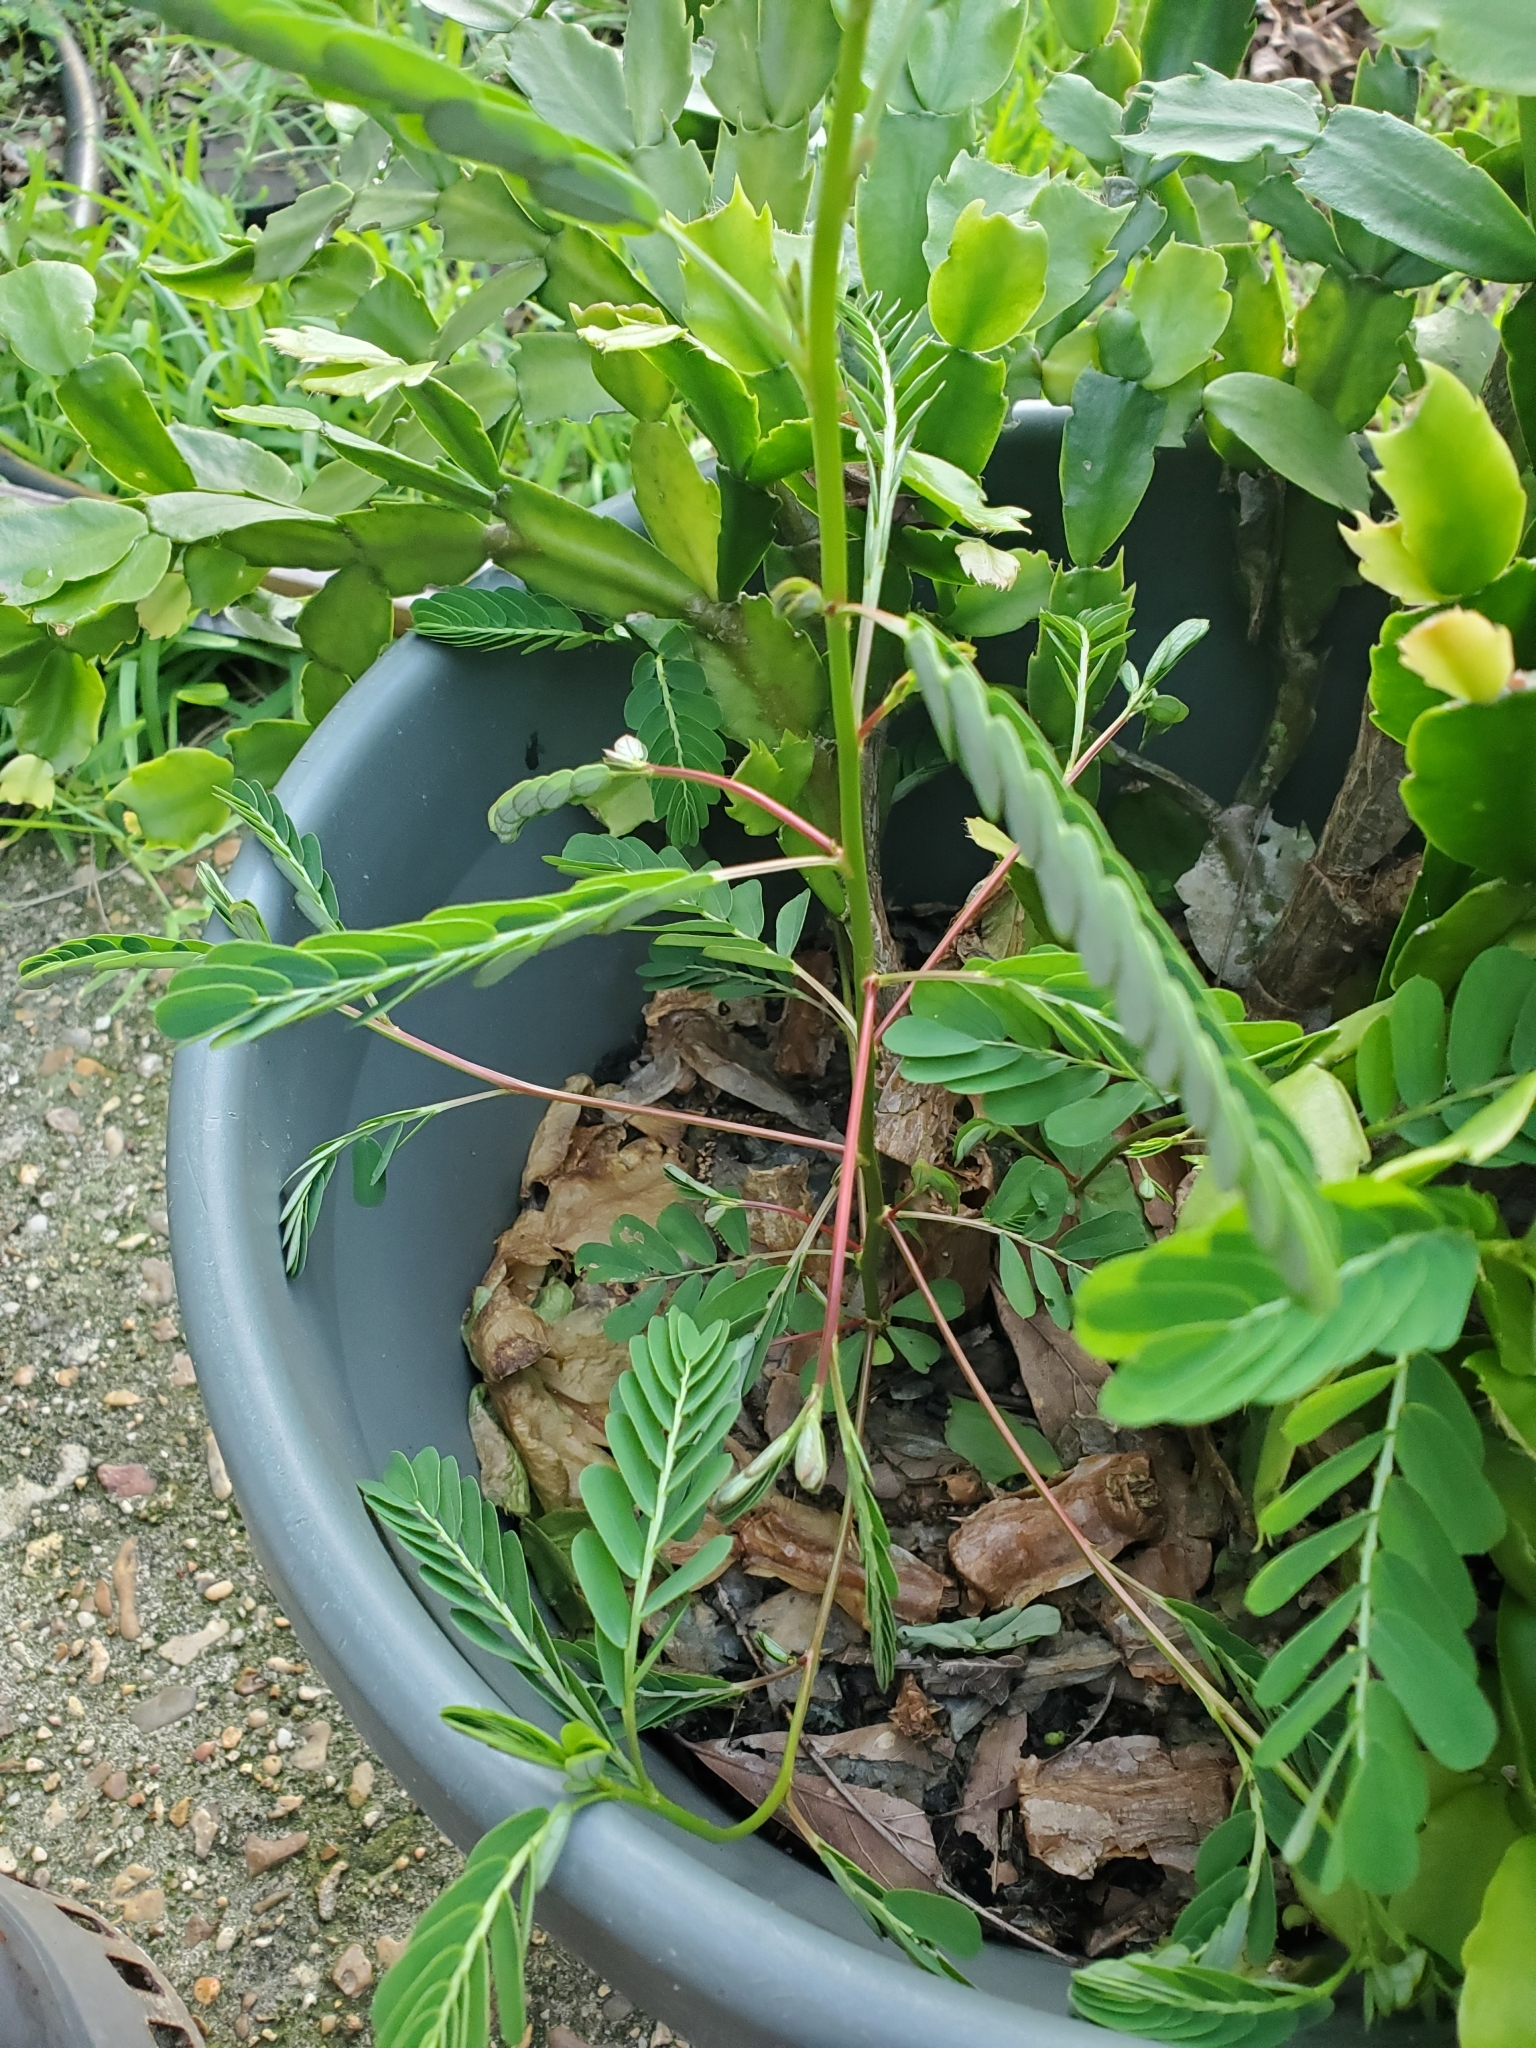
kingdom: Plantae
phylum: Tracheophyta
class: Magnoliopsida
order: Malpighiales
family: Phyllanthaceae
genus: Phyllanthus
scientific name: Phyllanthus urinaria
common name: Chamber bitter
